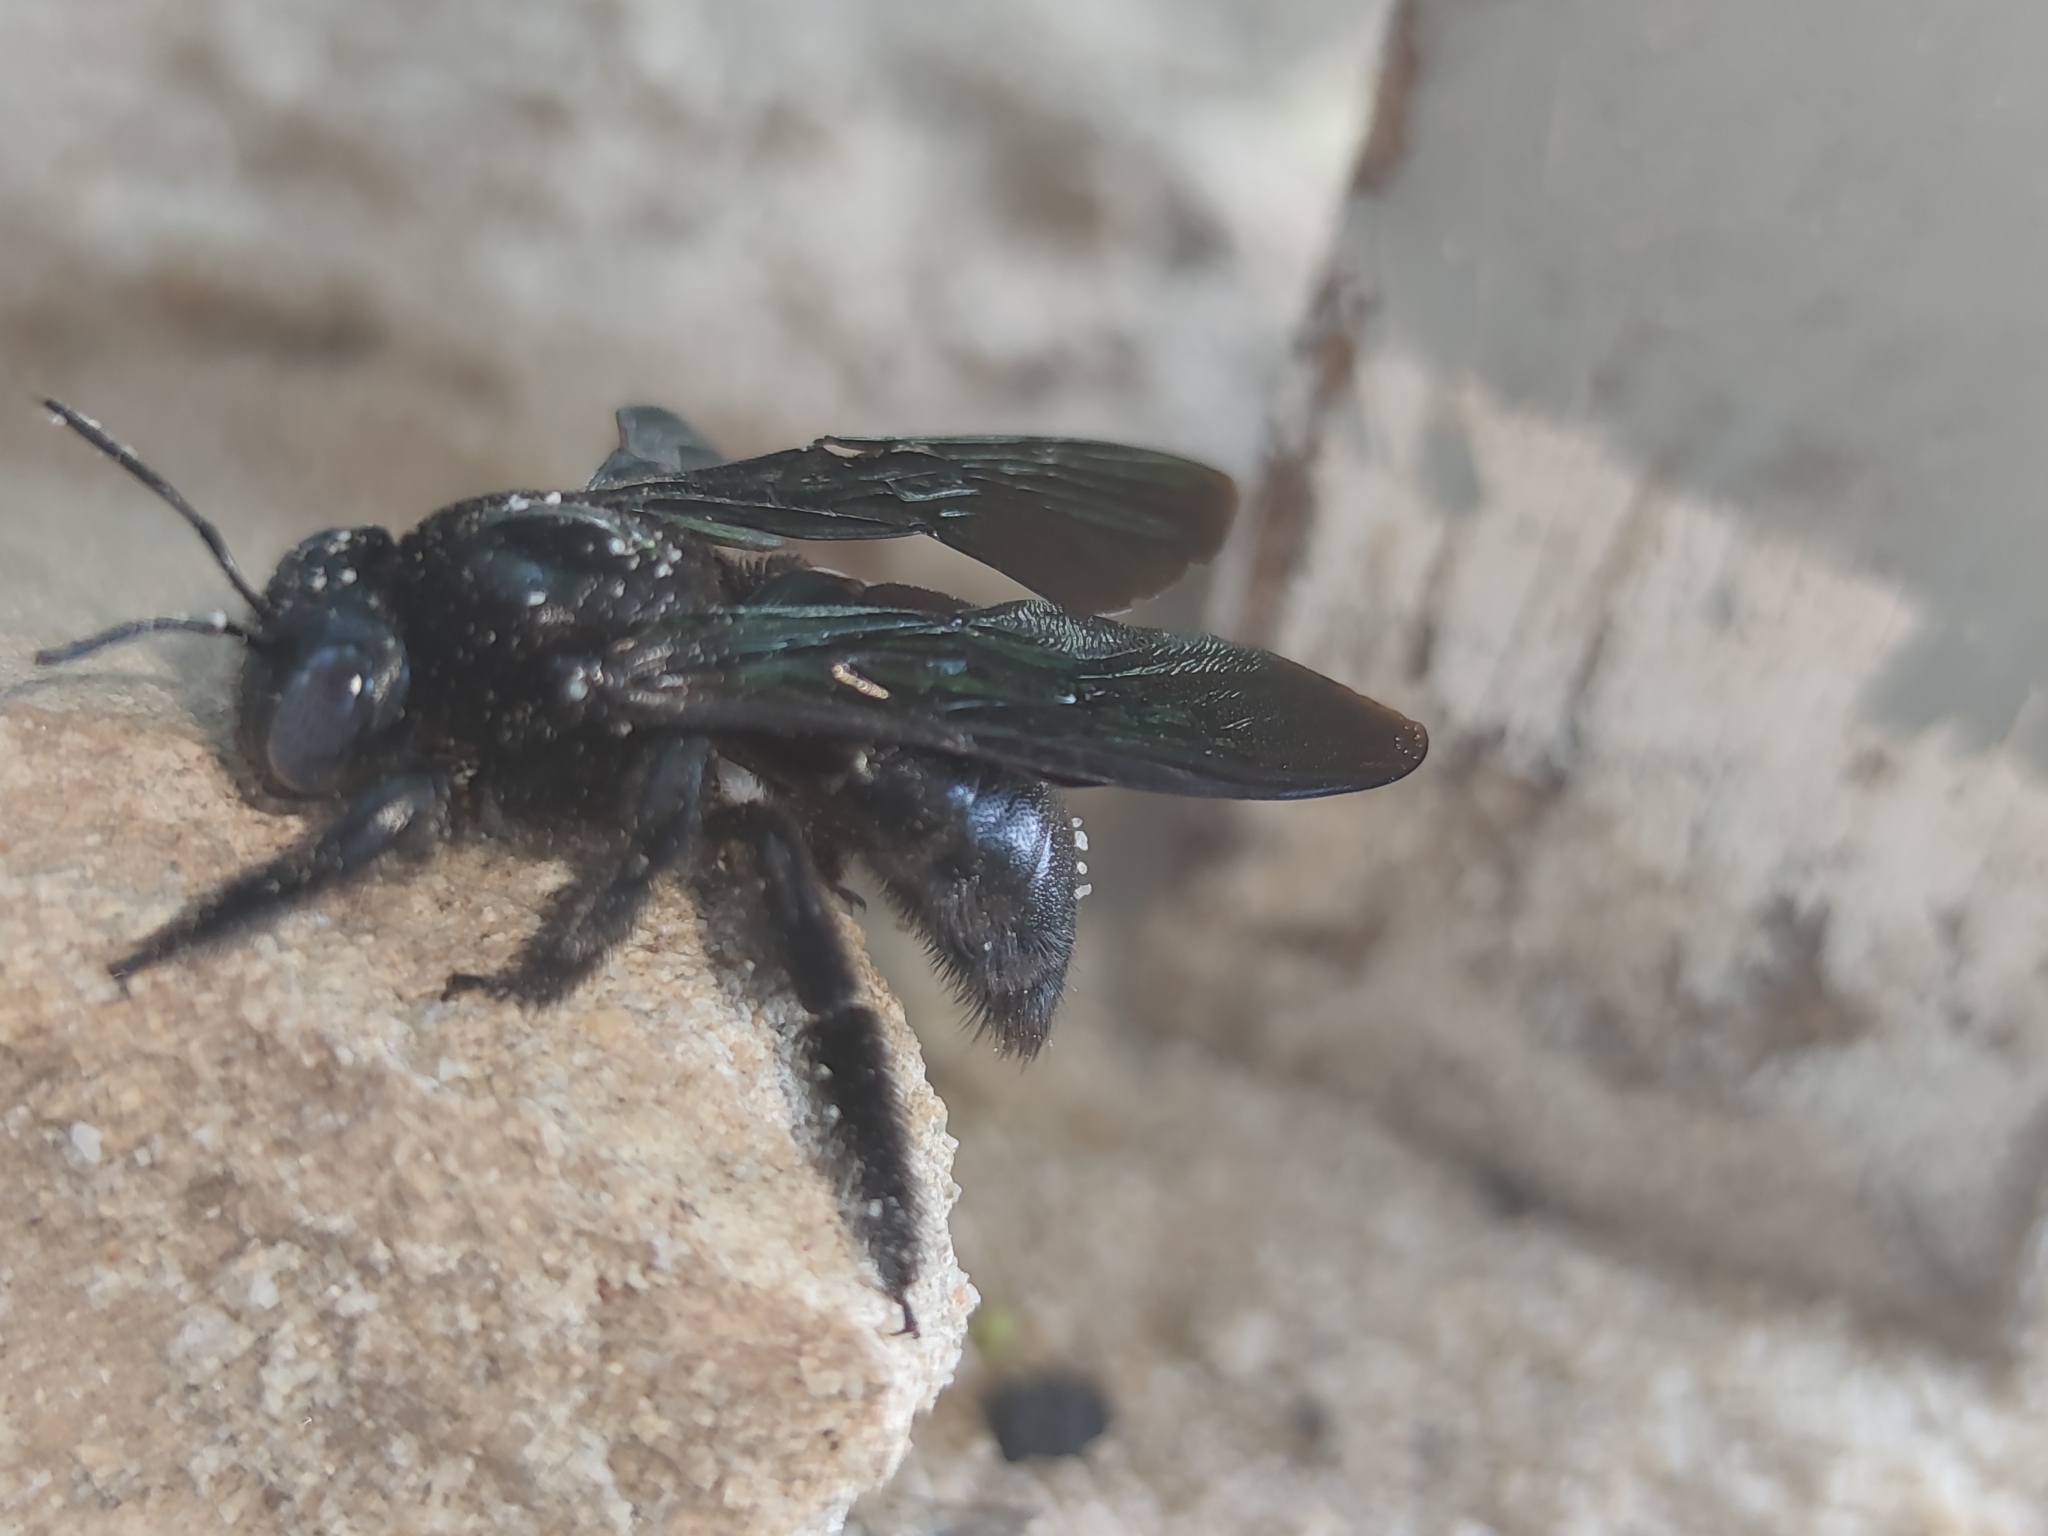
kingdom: Animalia
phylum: Arthropoda
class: Insecta
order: Hymenoptera
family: Apidae
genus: Xylocopa
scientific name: Xylocopa iridipennis
